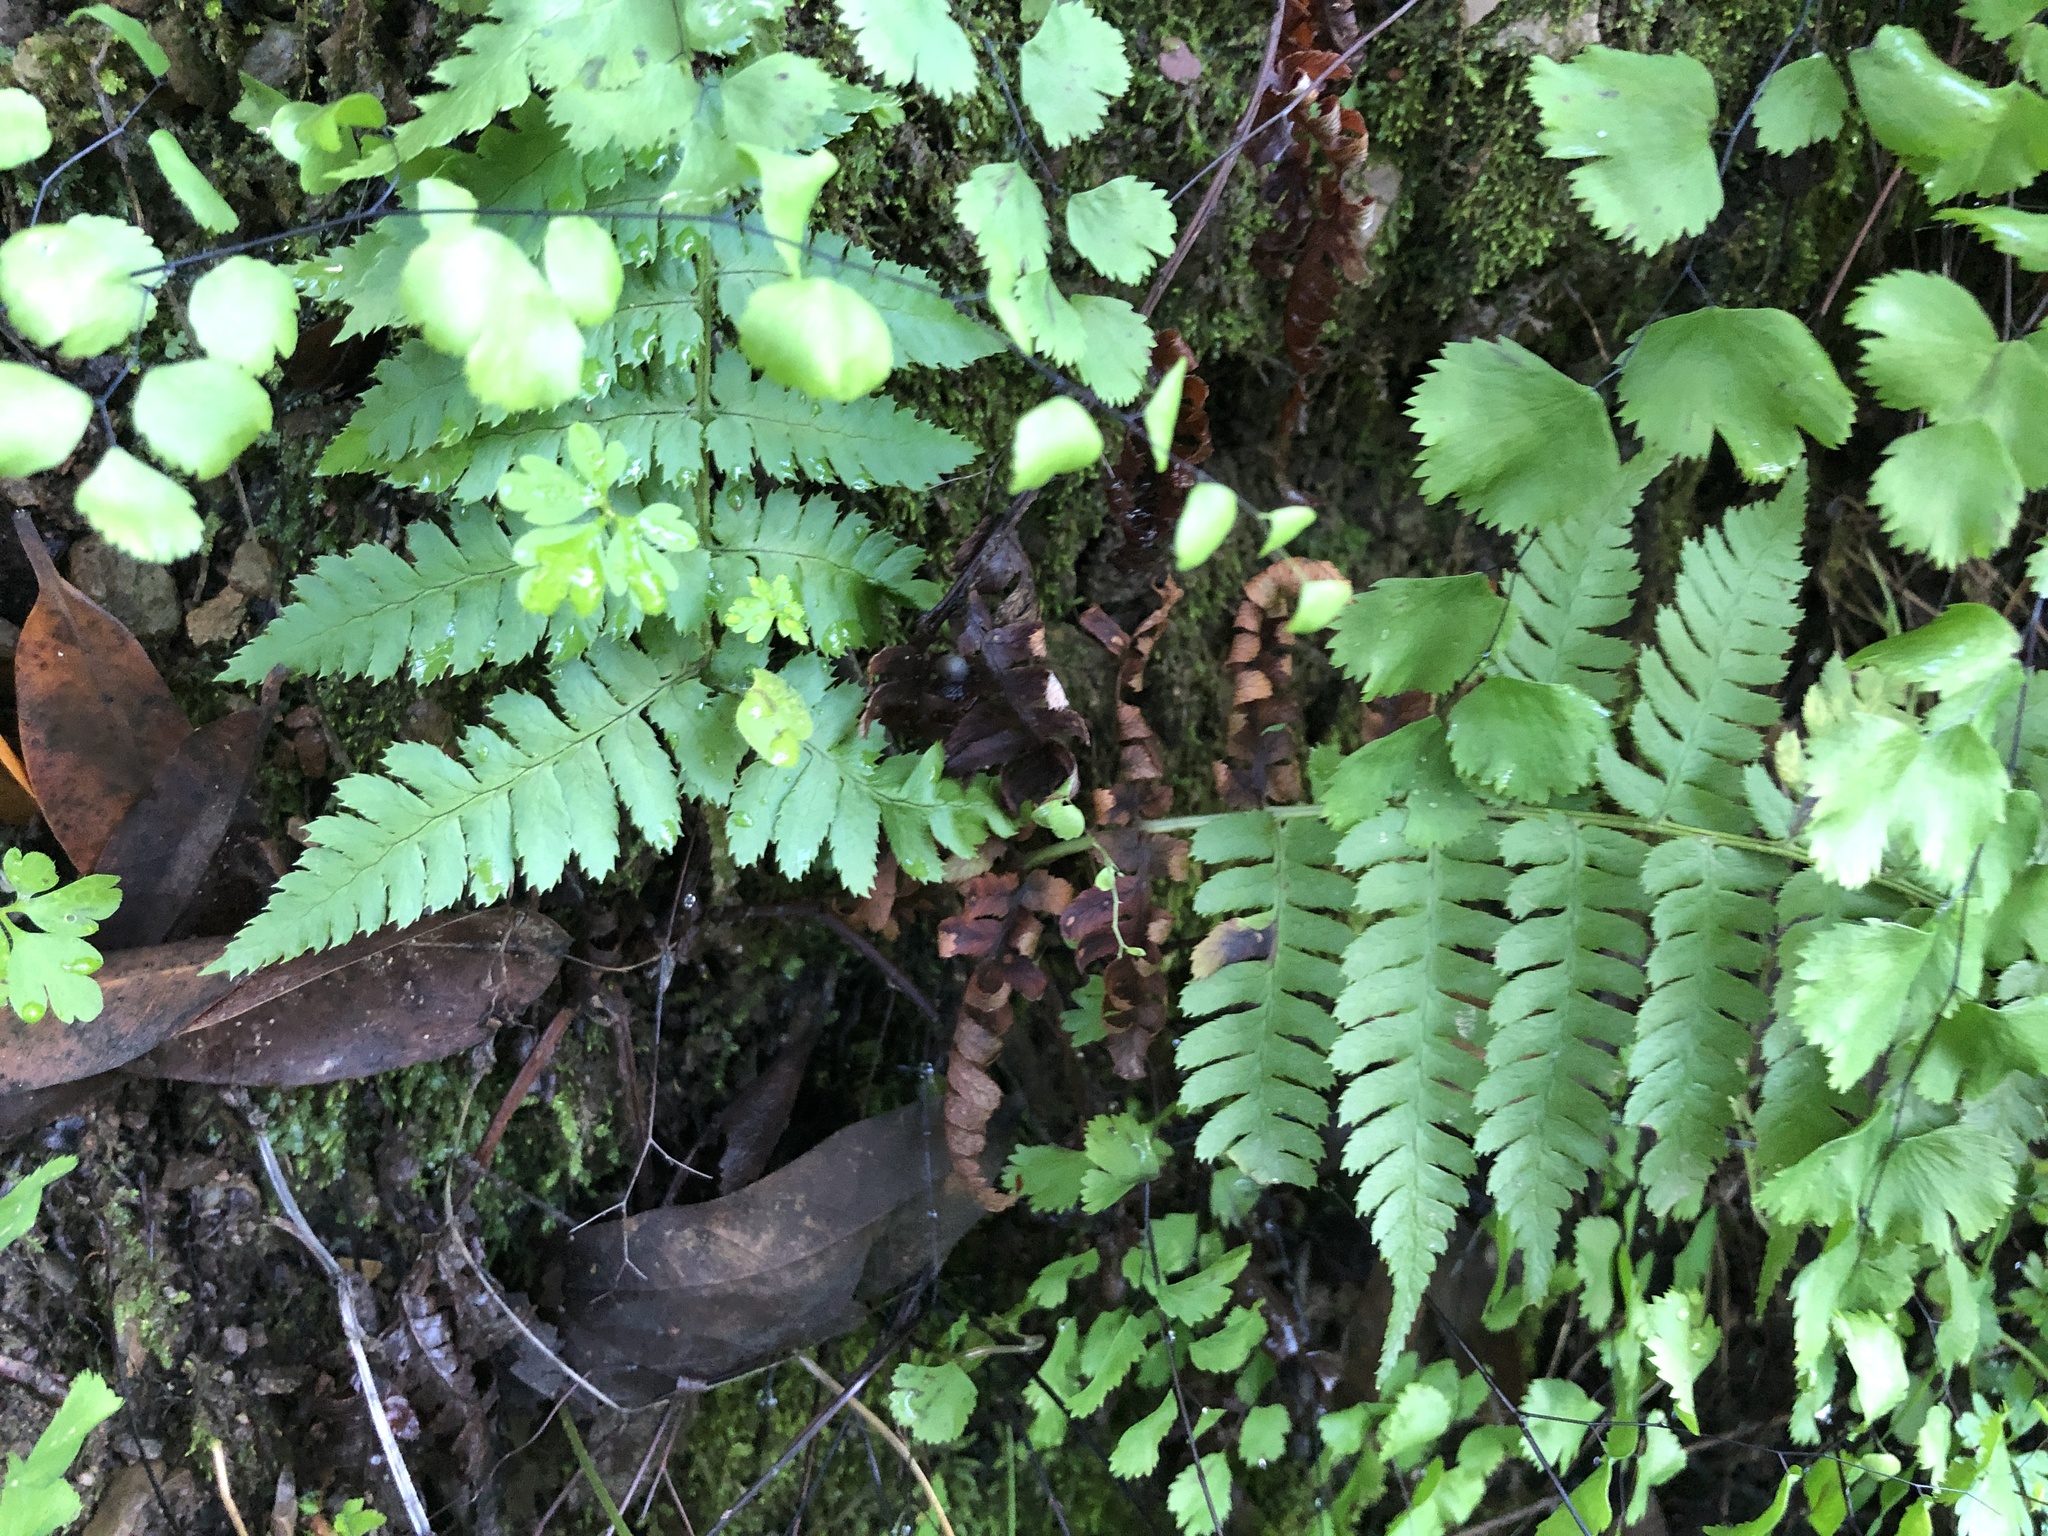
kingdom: Plantae
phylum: Tracheophyta
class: Polypodiopsida
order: Polypodiales
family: Dryopteridaceae
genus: Dryopteris
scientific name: Dryopteris arguta
